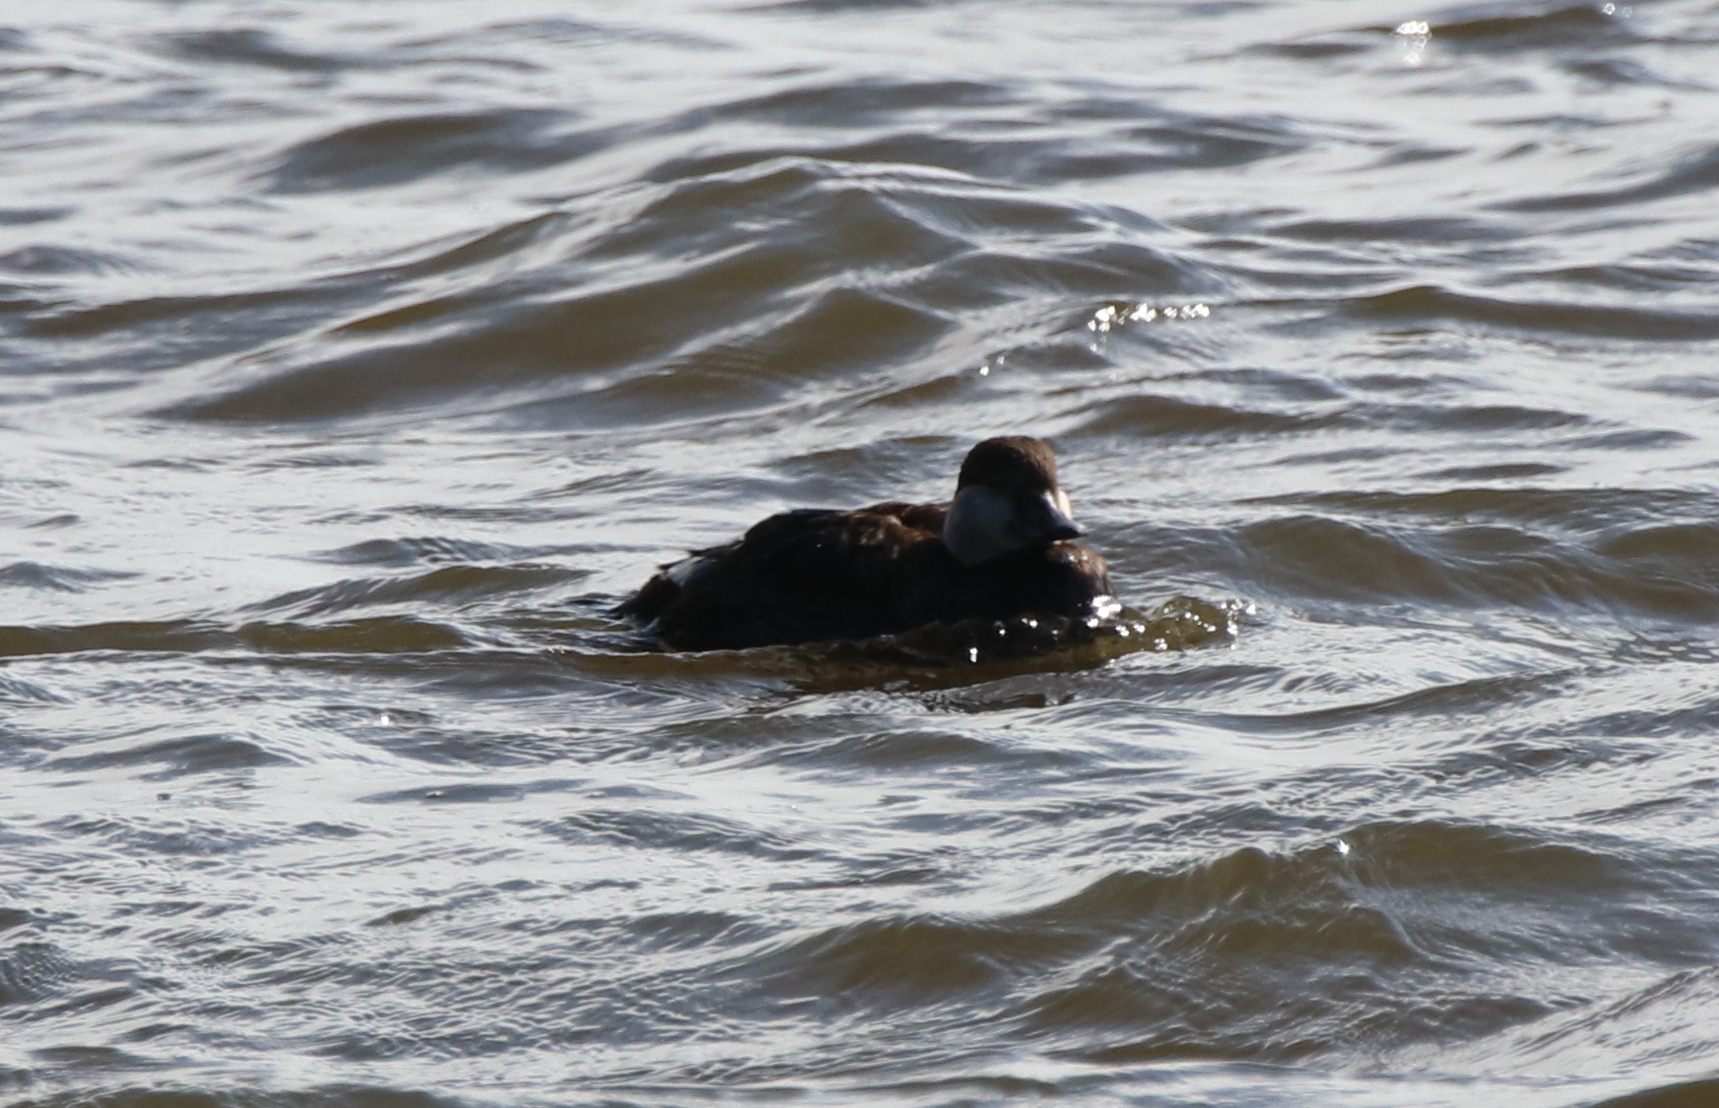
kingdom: Animalia
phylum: Chordata
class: Aves
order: Anseriformes
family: Anatidae
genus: Melanitta
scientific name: Melanitta americana
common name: Black scoter
